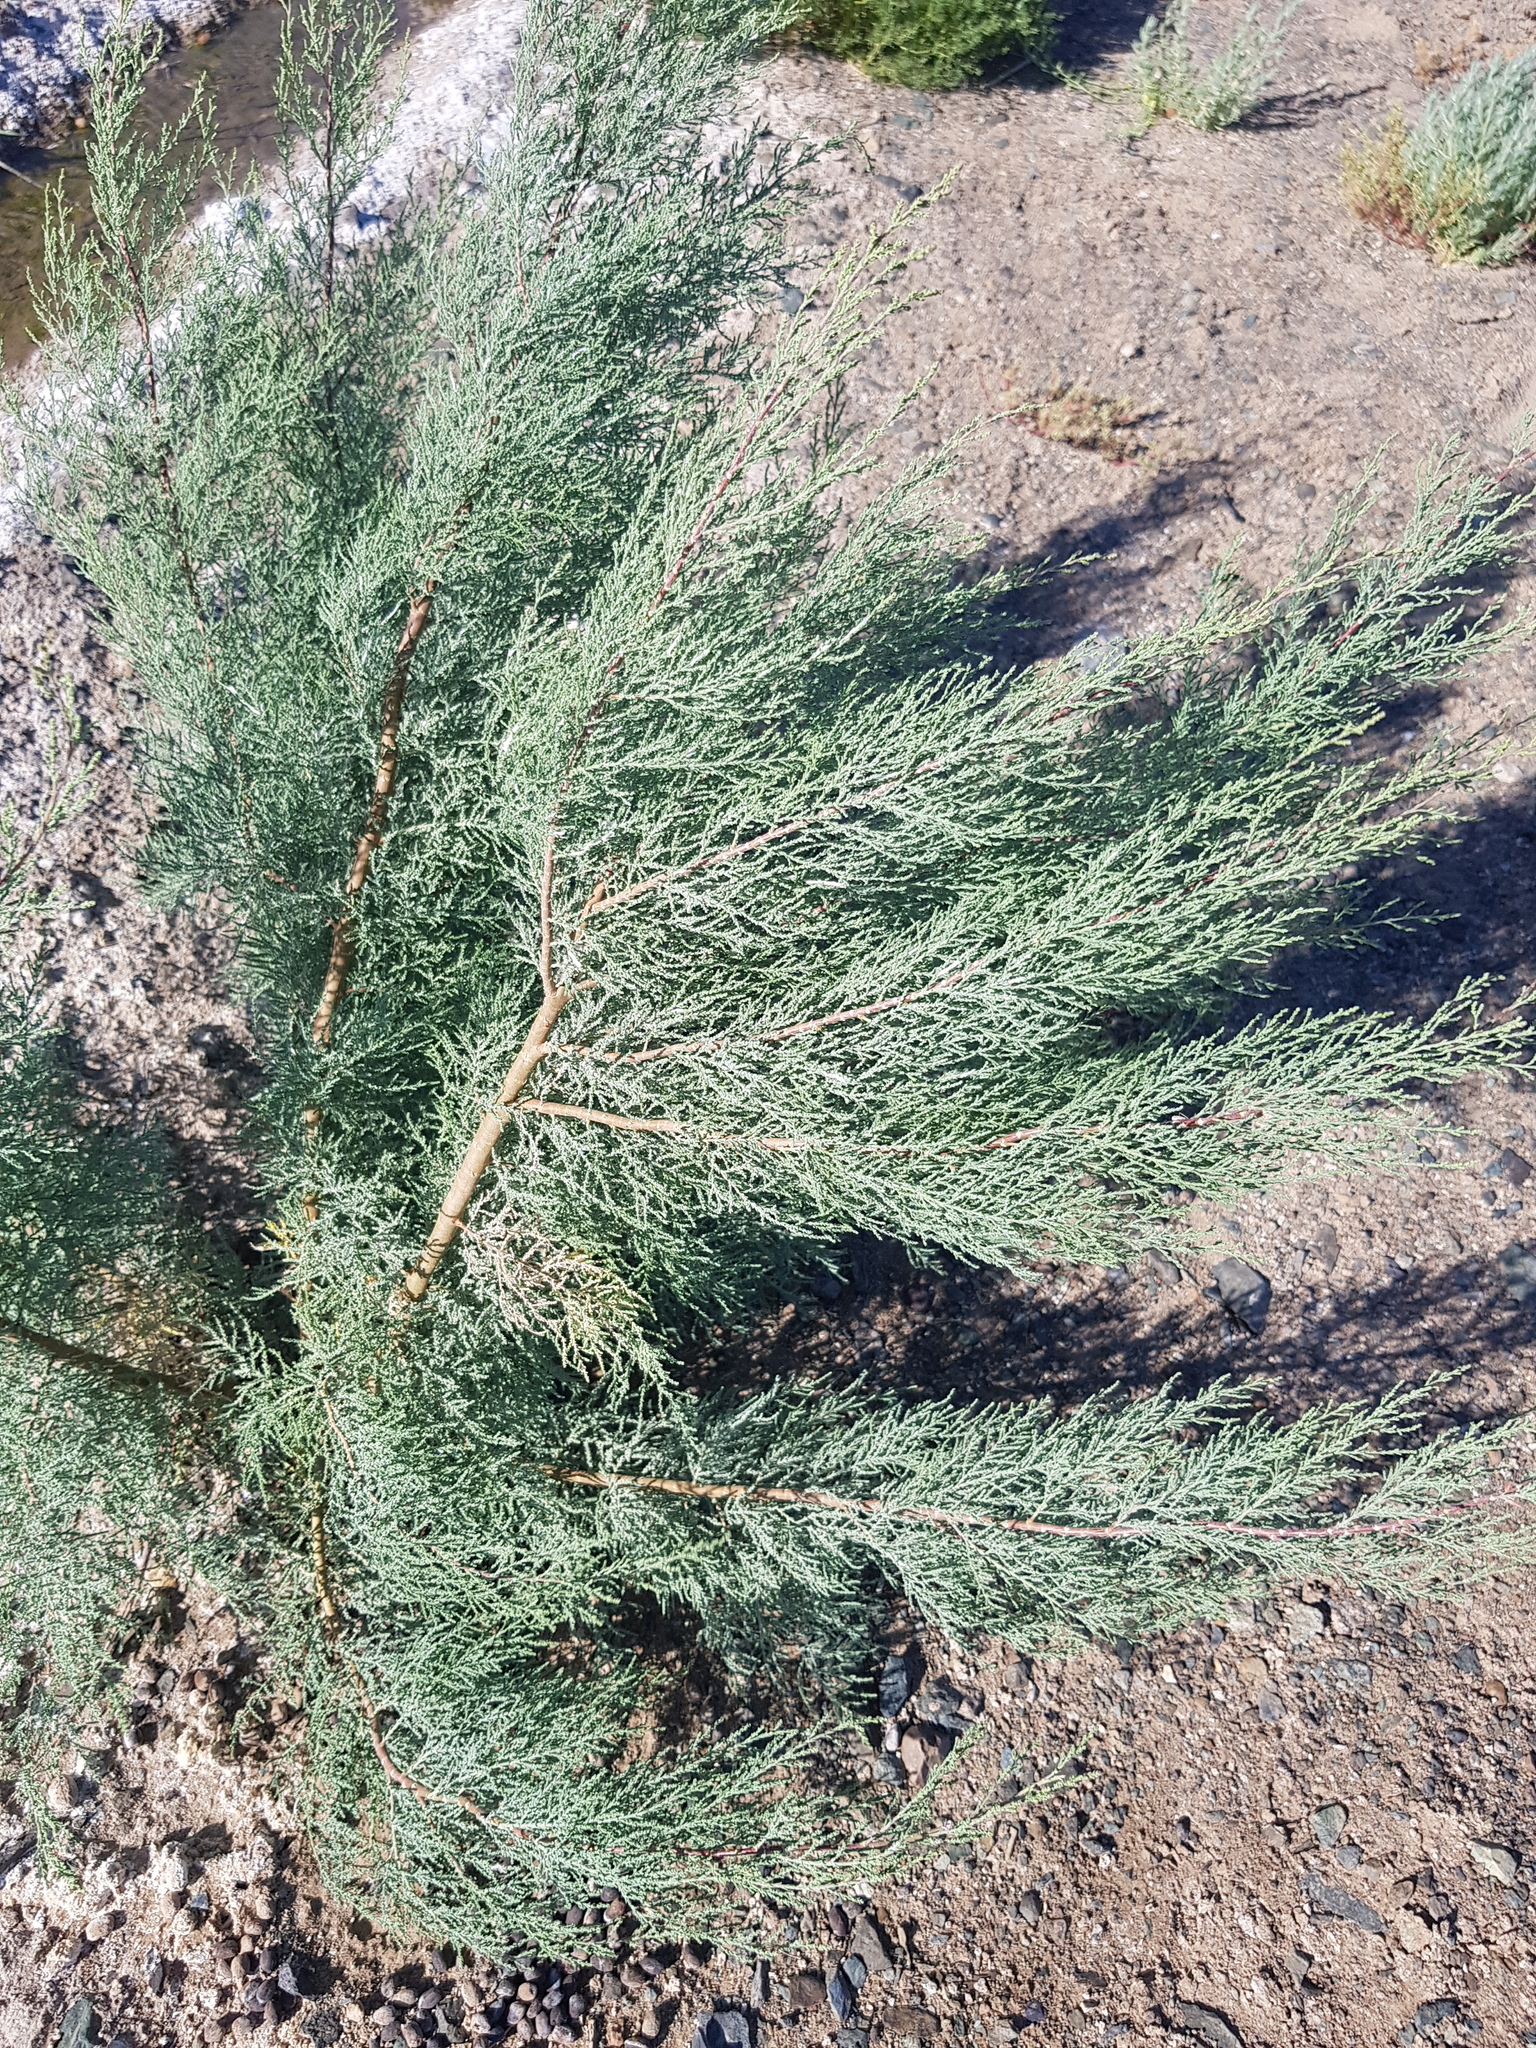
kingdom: Plantae
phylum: Tracheophyta
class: Magnoliopsida
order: Caryophyllales
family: Tamaricaceae
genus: Tamarix
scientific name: Tamarix ramosissima
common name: Pink tamarisk
